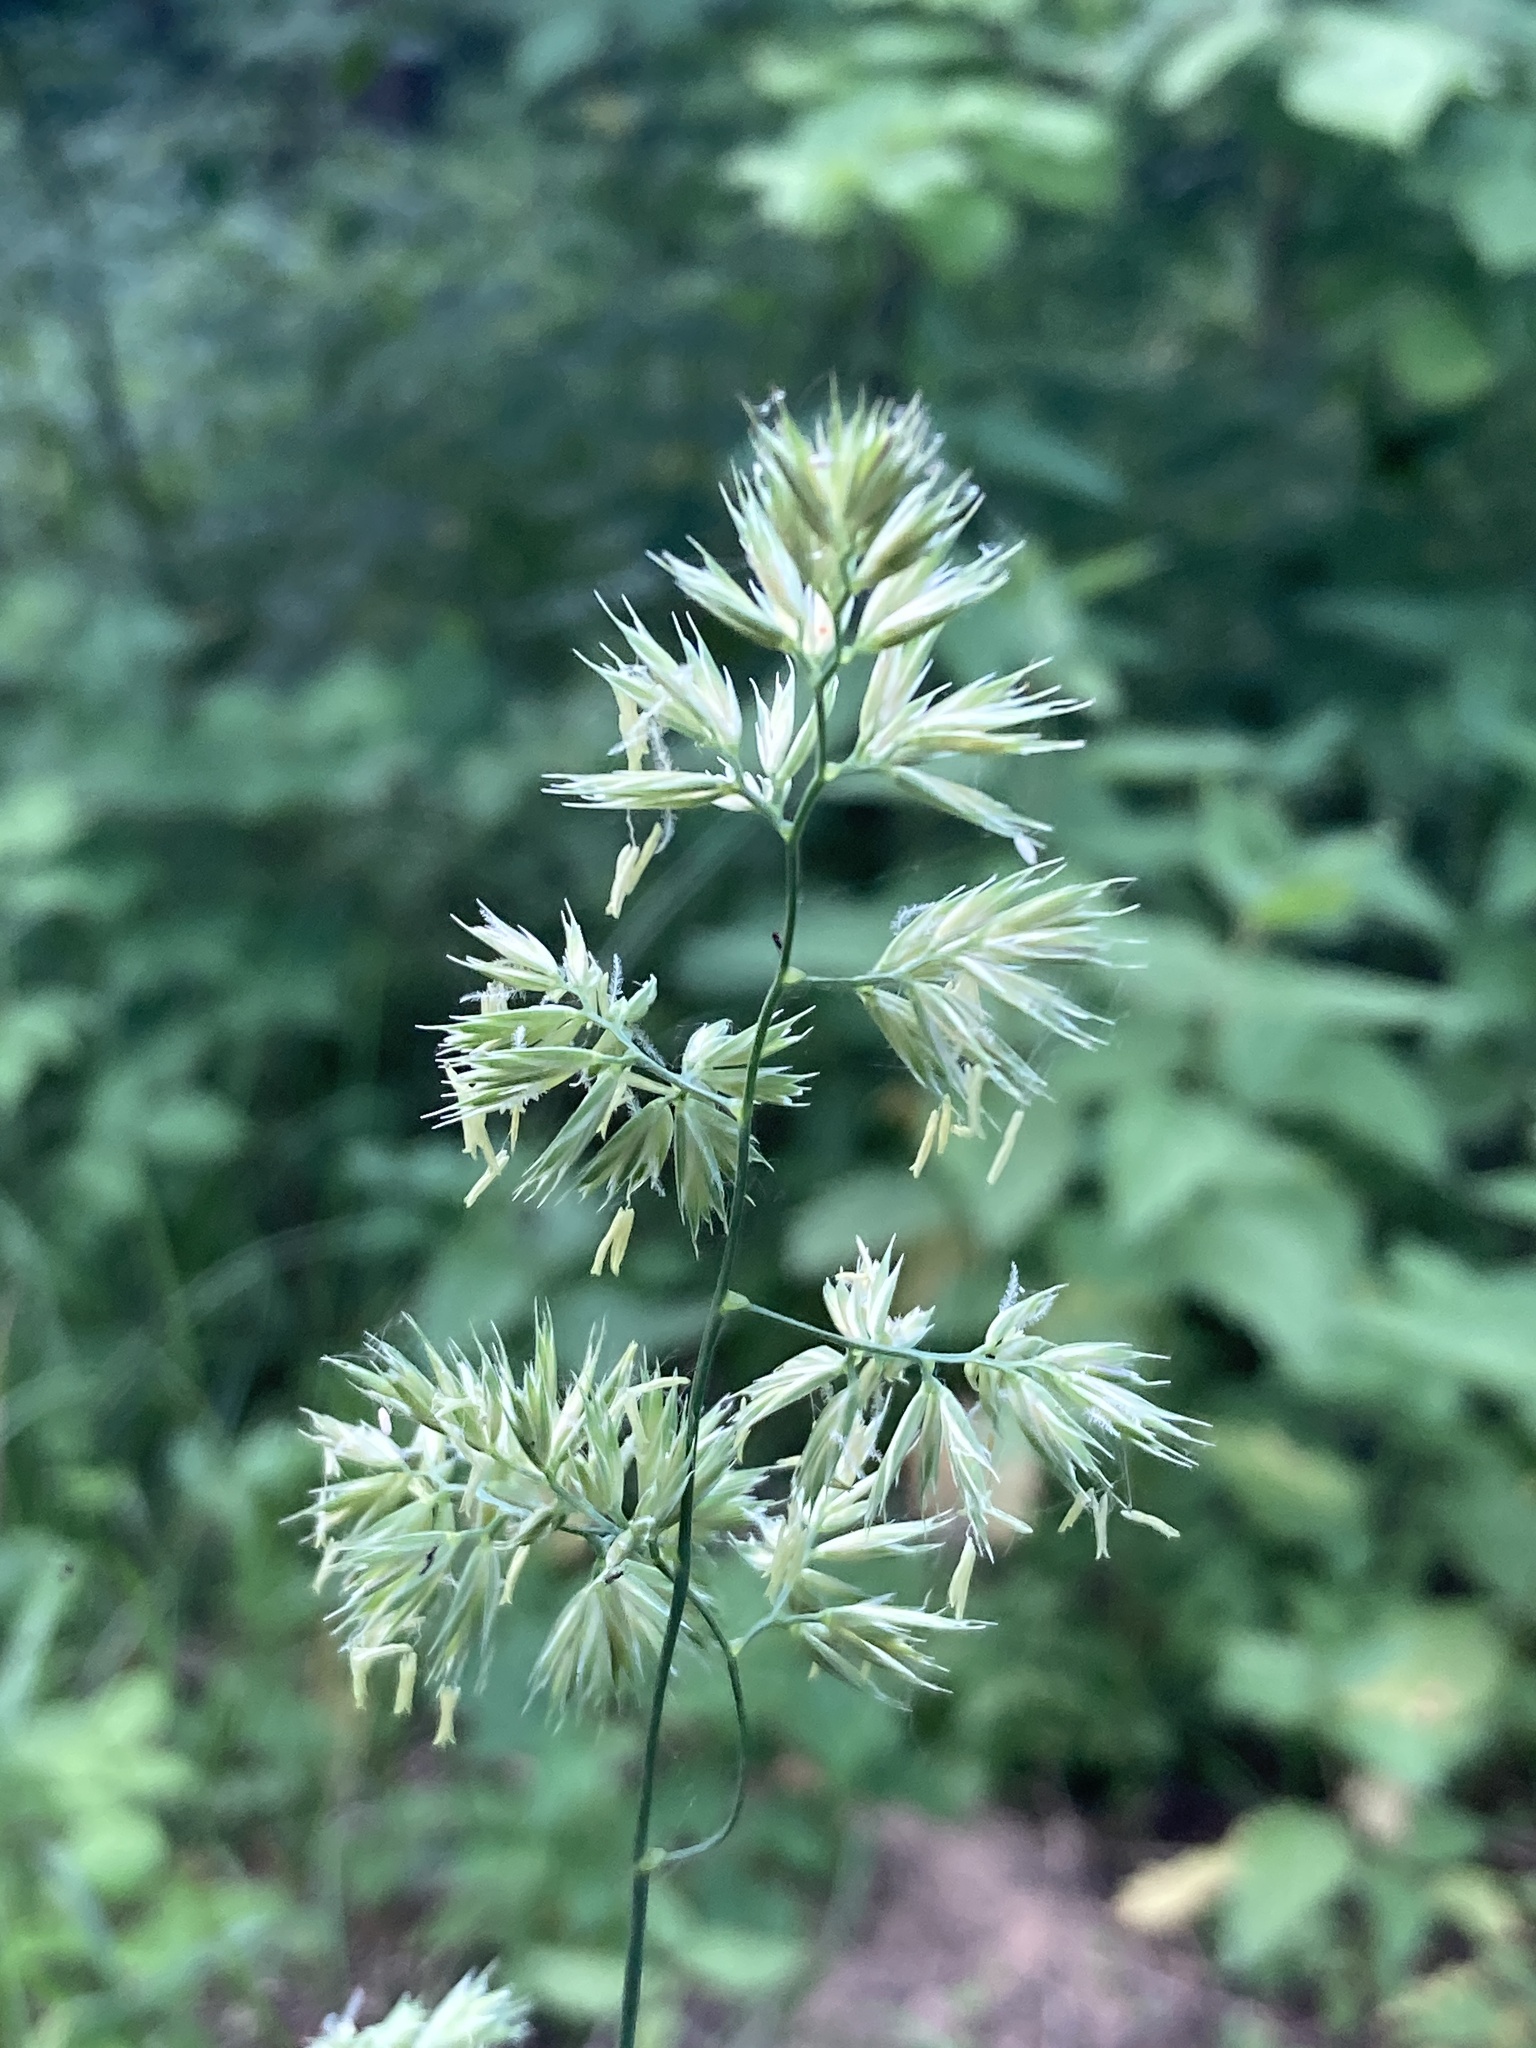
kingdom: Plantae
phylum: Tracheophyta
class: Liliopsida
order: Poales
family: Poaceae
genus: Dactylis
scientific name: Dactylis glomerata
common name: Orchardgrass
